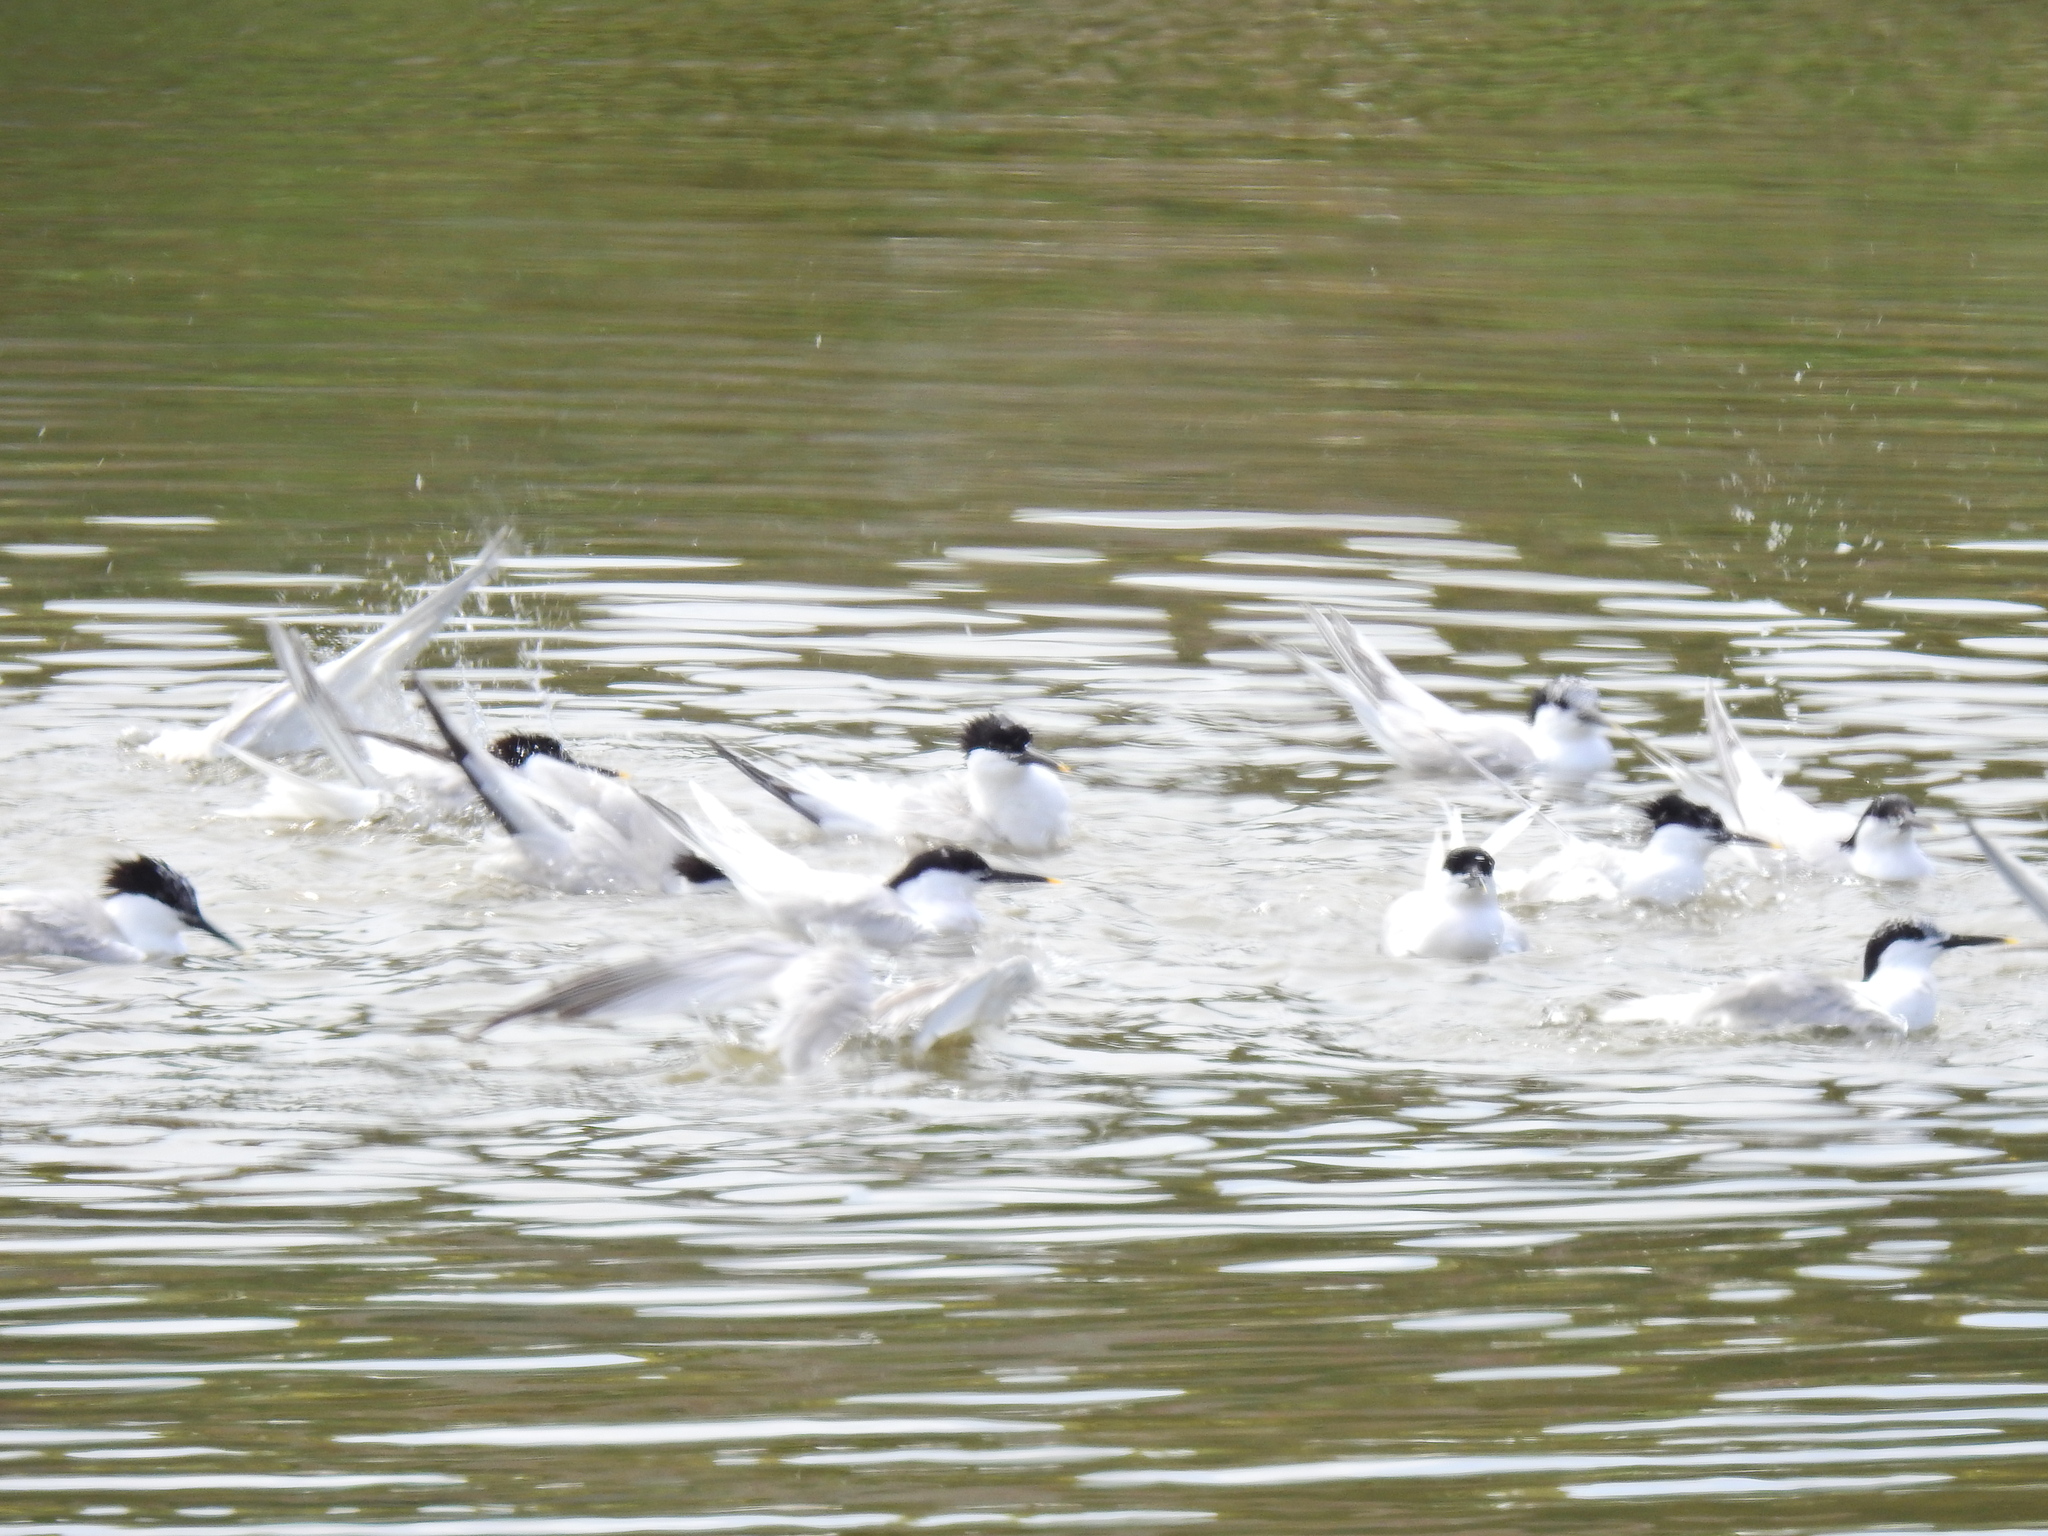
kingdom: Animalia
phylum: Chordata
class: Aves
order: Charadriiformes
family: Laridae
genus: Thalasseus
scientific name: Thalasseus sandvicensis
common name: Sandwich tern
